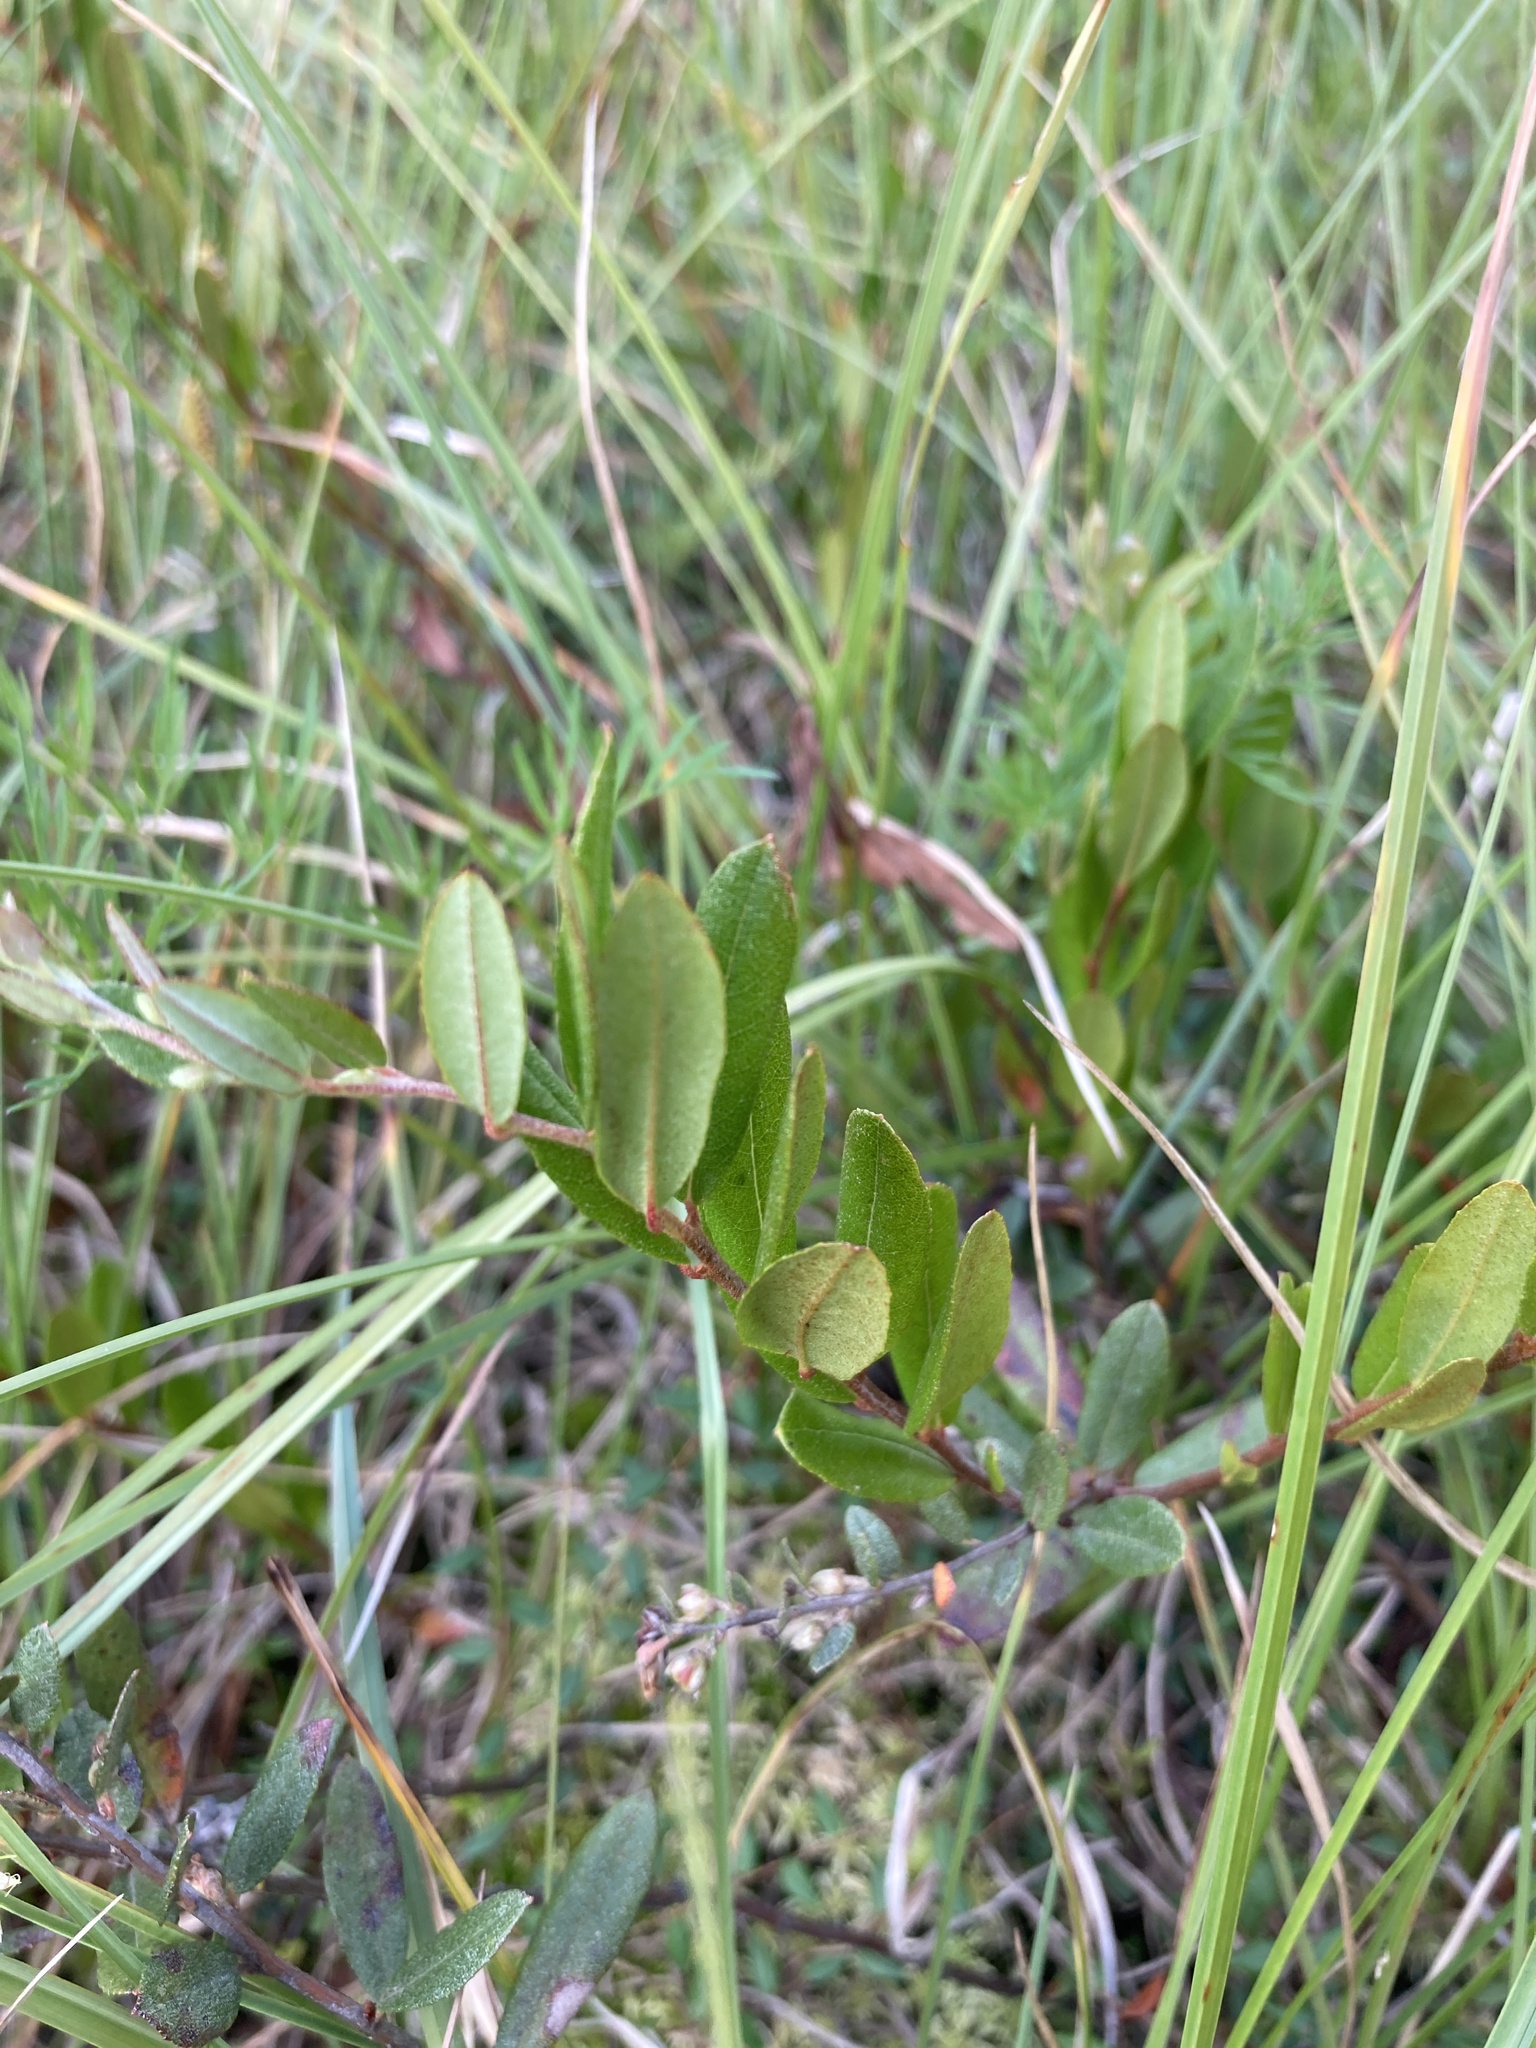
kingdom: Plantae
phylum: Tracheophyta
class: Magnoliopsida
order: Ericales
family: Ericaceae
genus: Chamaedaphne
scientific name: Chamaedaphne calyculata
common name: Leatherleaf
